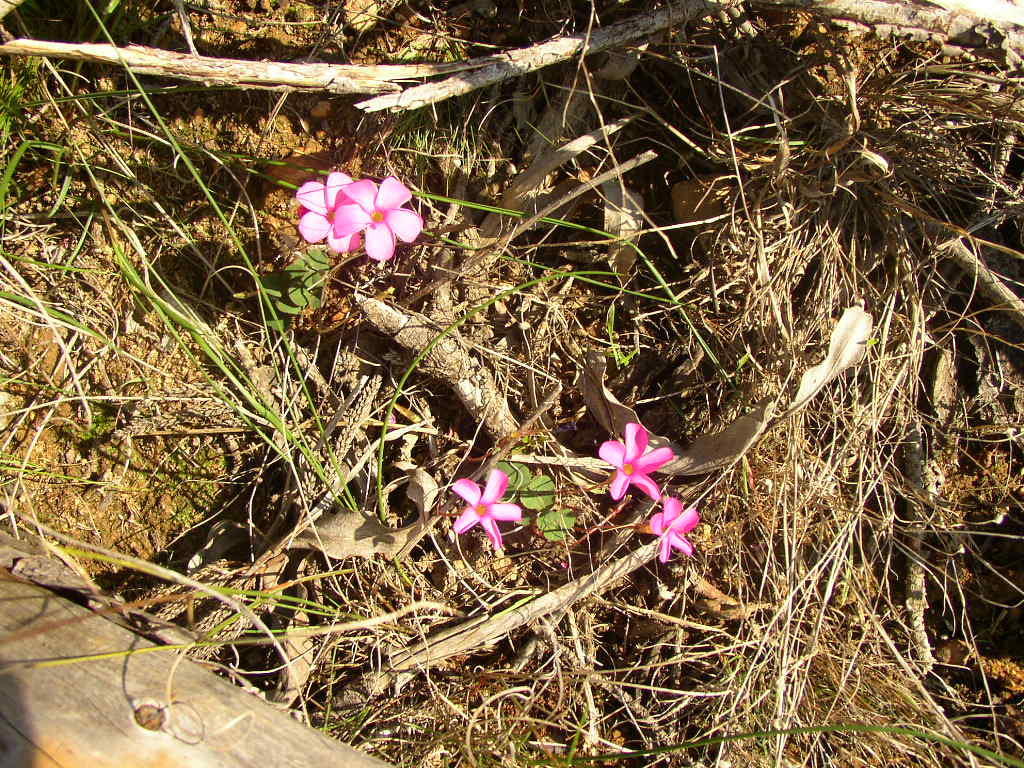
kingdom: Plantae
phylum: Tracheophyta
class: Magnoliopsida
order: Oxalidales
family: Oxalidaceae
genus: Oxalis
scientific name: Oxalis eckloniana
